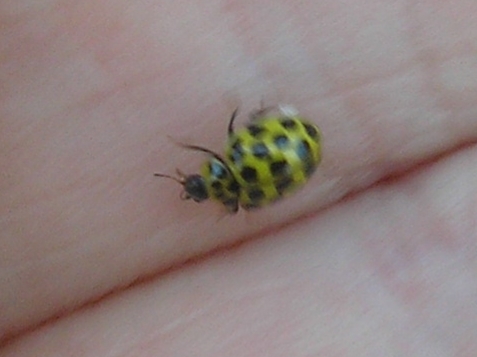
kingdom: Animalia
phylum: Arthropoda
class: Insecta
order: Coleoptera
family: Coccinellidae
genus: Psyllobora
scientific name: Psyllobora vigintiduopunctata
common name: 22-spot ladybird
